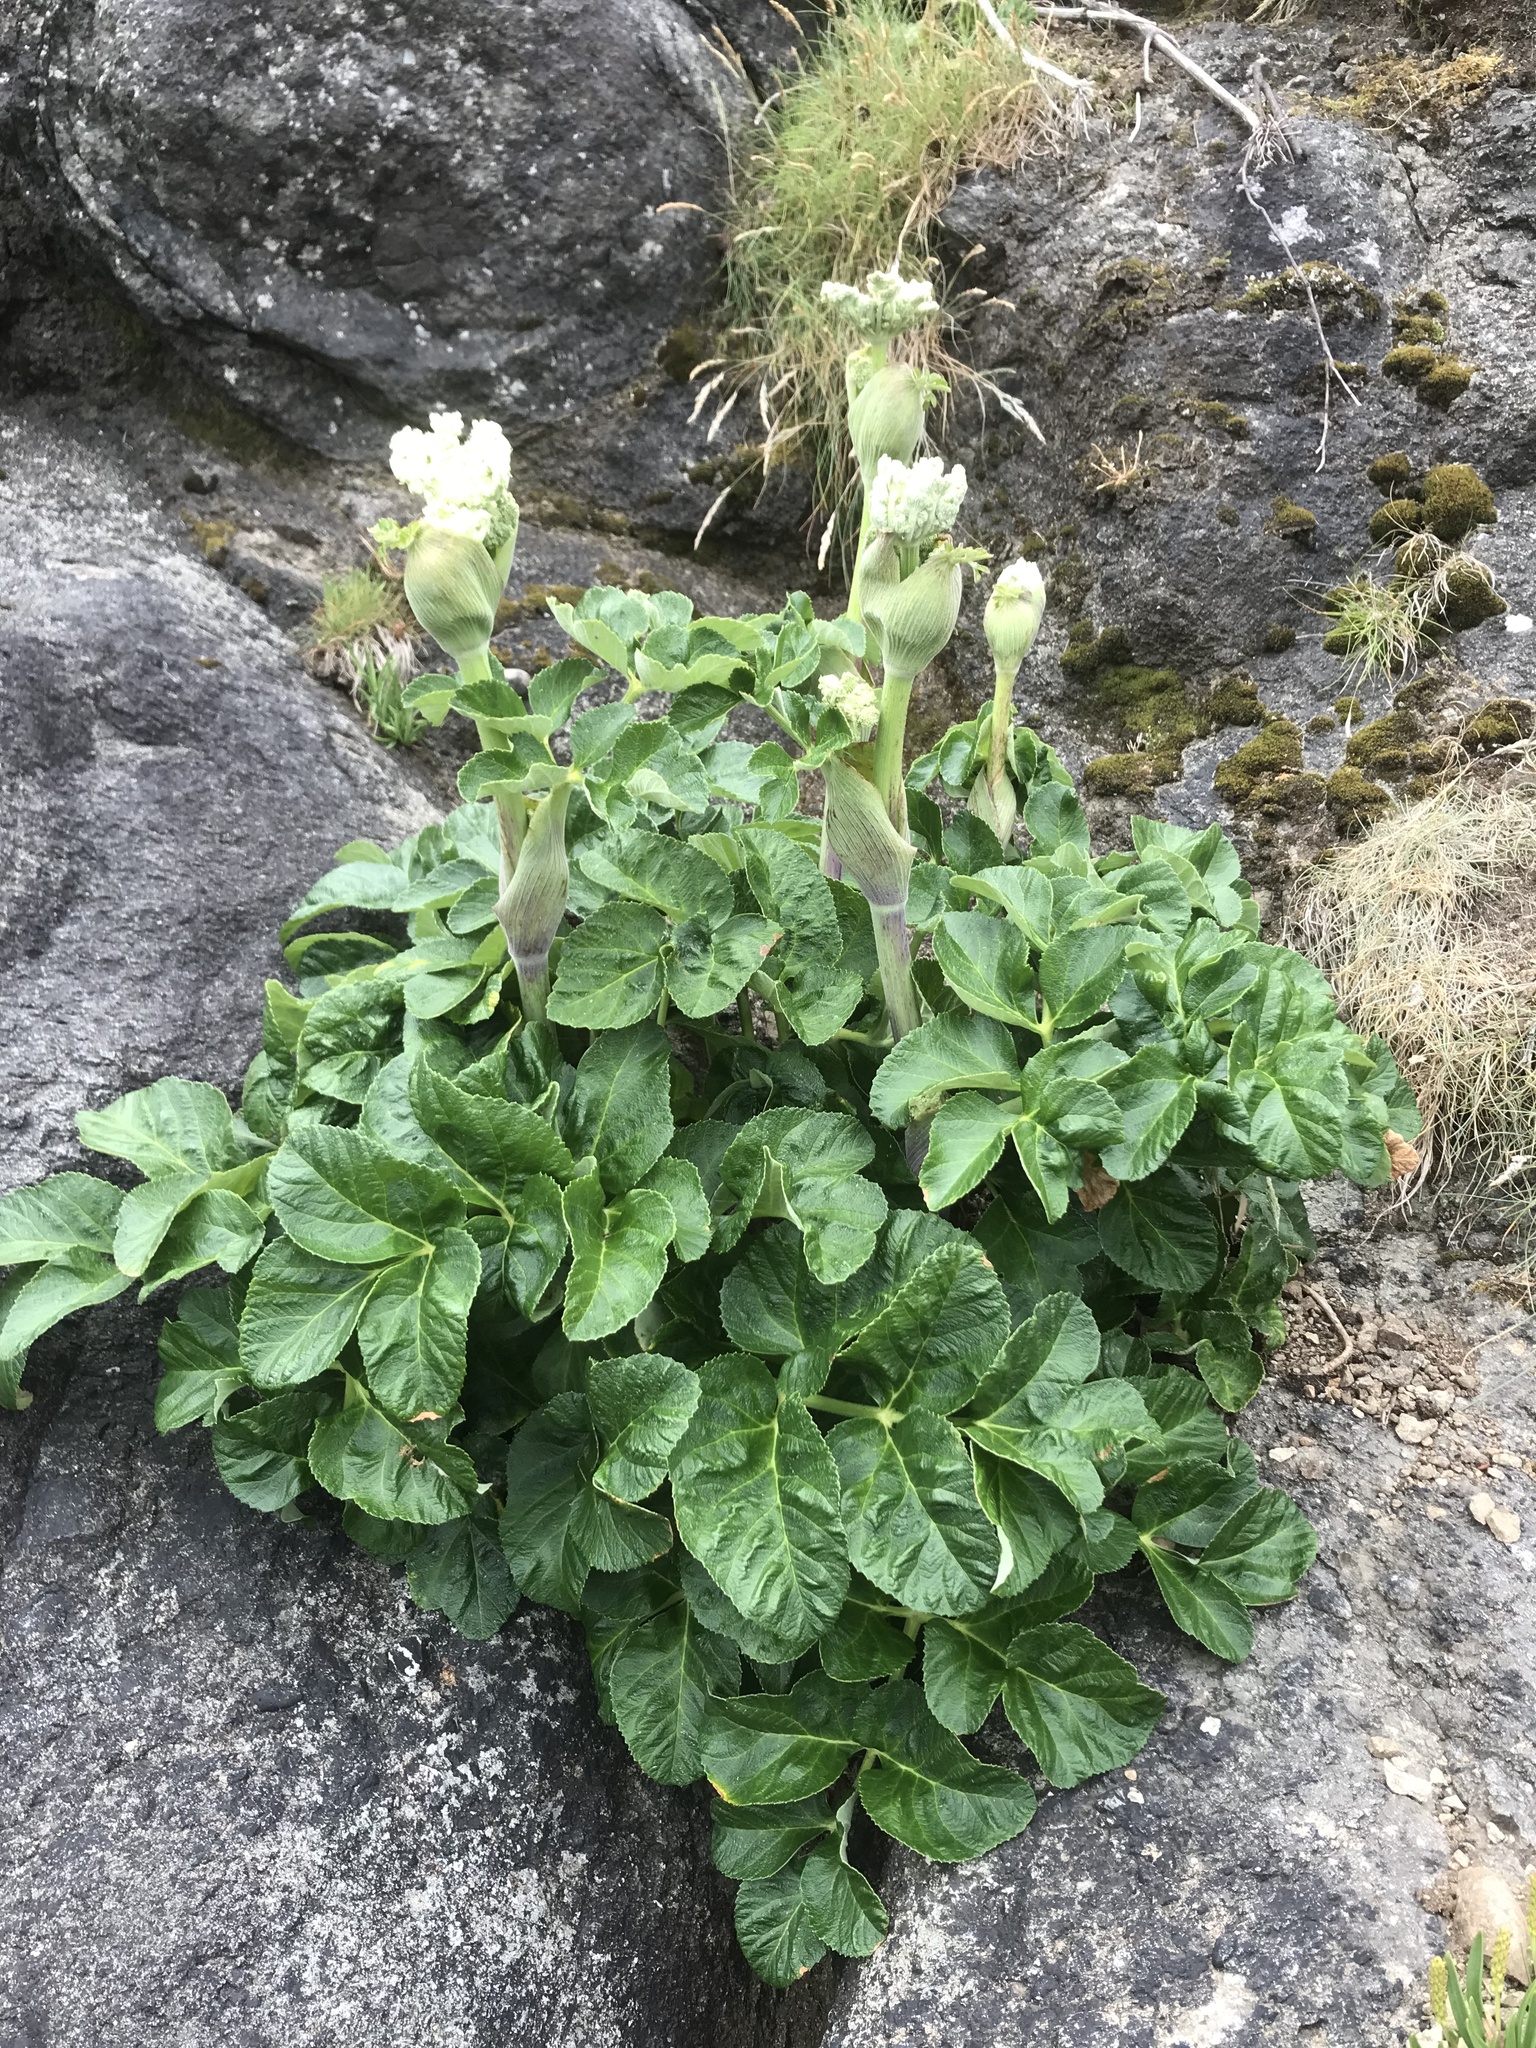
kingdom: Plantae
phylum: Tracheophyta
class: Magnoliopsida
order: Apiales
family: Apiaceae
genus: Angelica
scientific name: Angelica hendersonii
